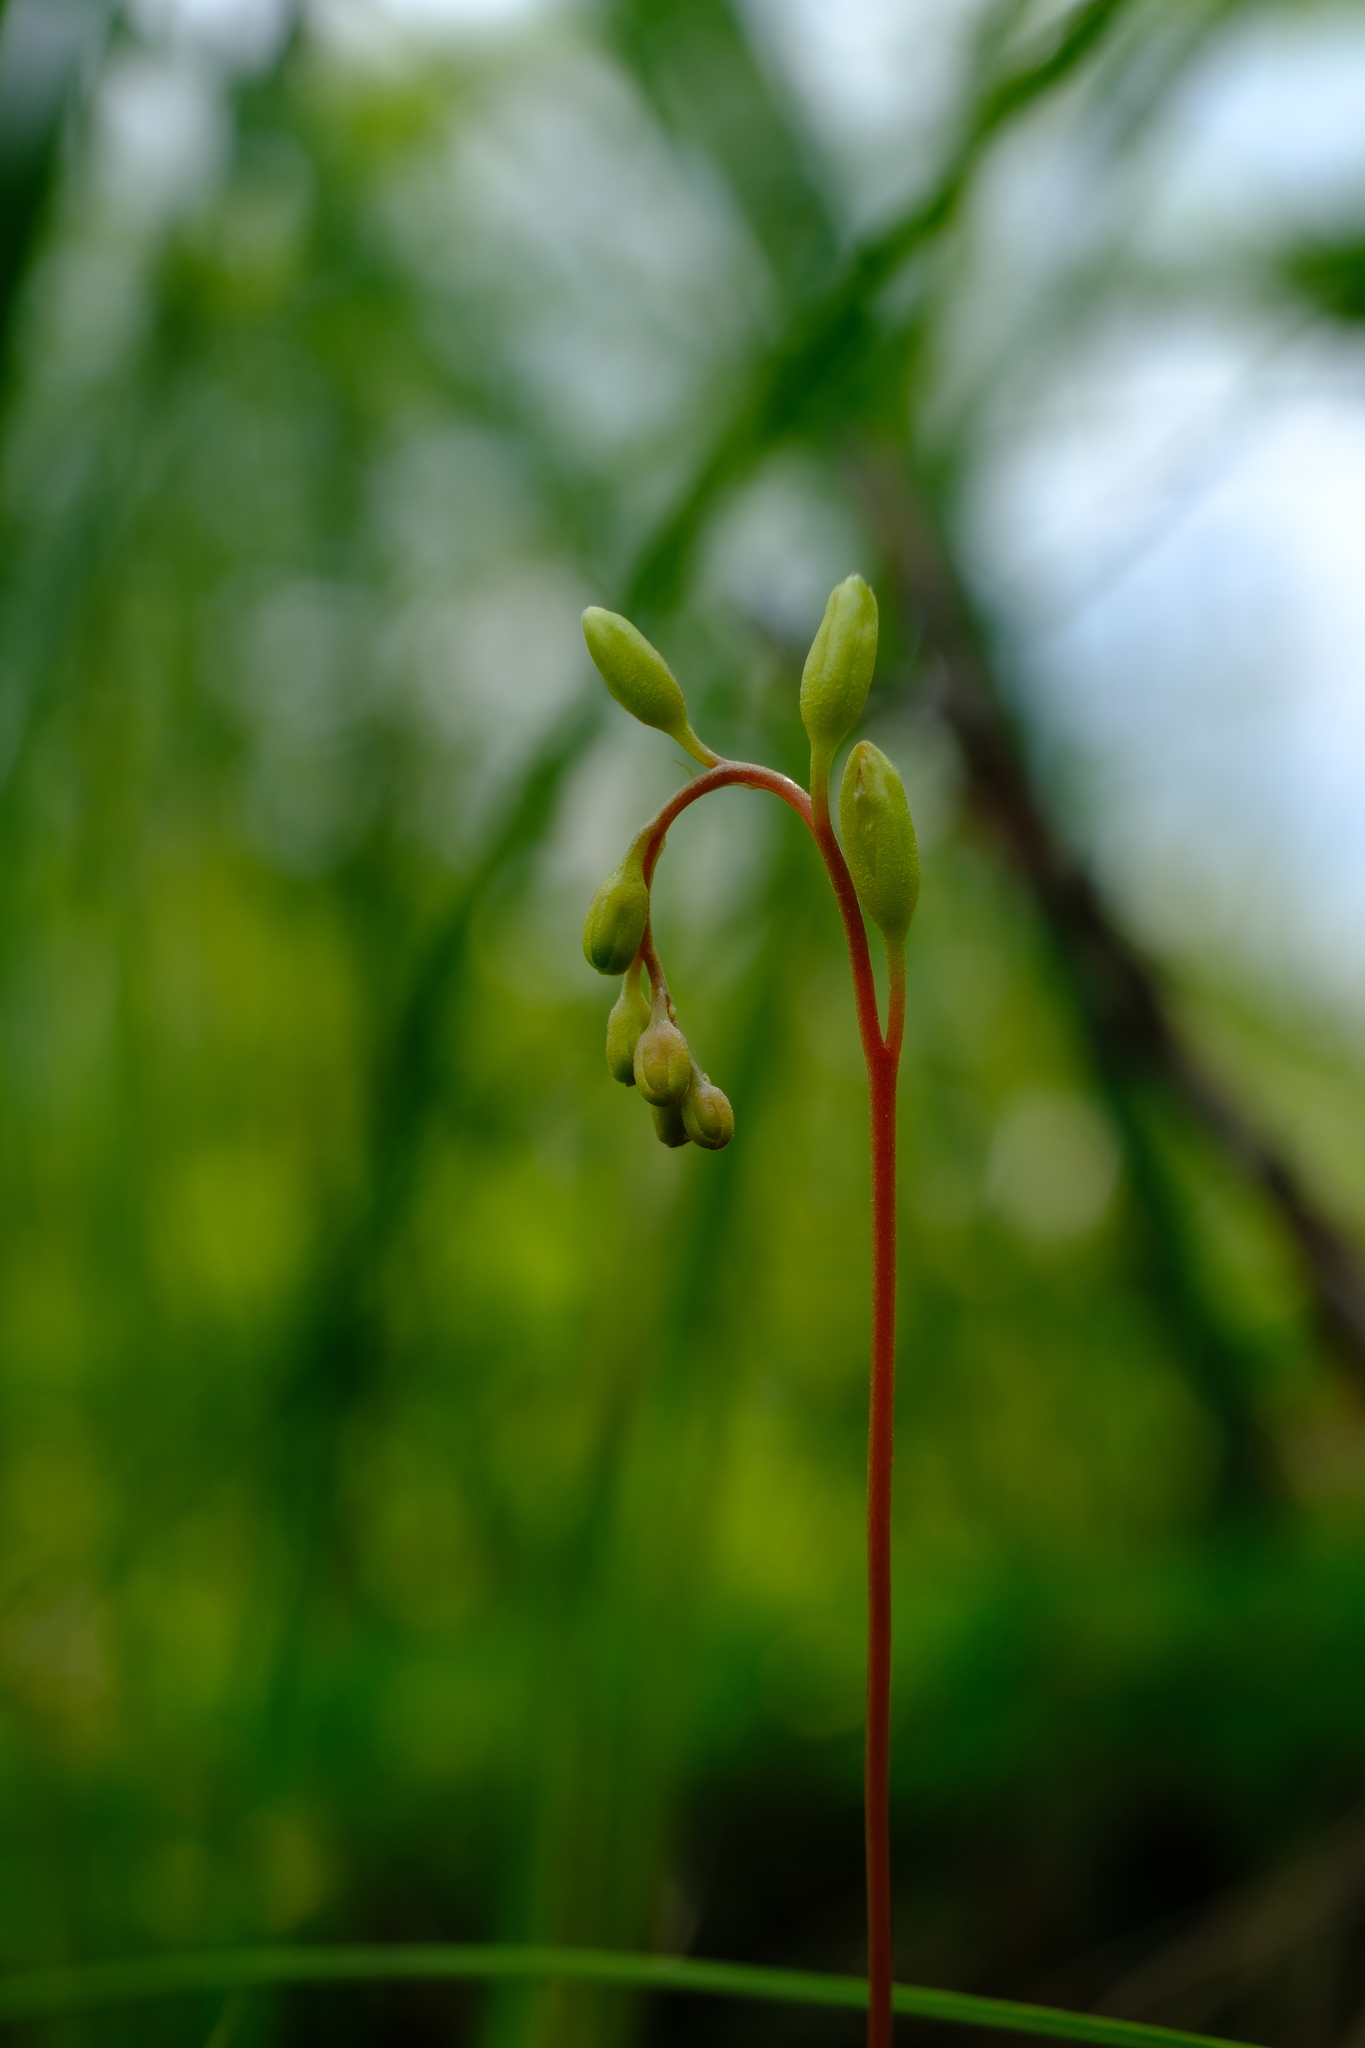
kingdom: Plantae
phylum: Tracheophyta
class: Magnoliopsida
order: Caryophyllales
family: Droseraceae
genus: Drosera
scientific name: Drosera rotundifolia
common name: Round-leaved sundew
